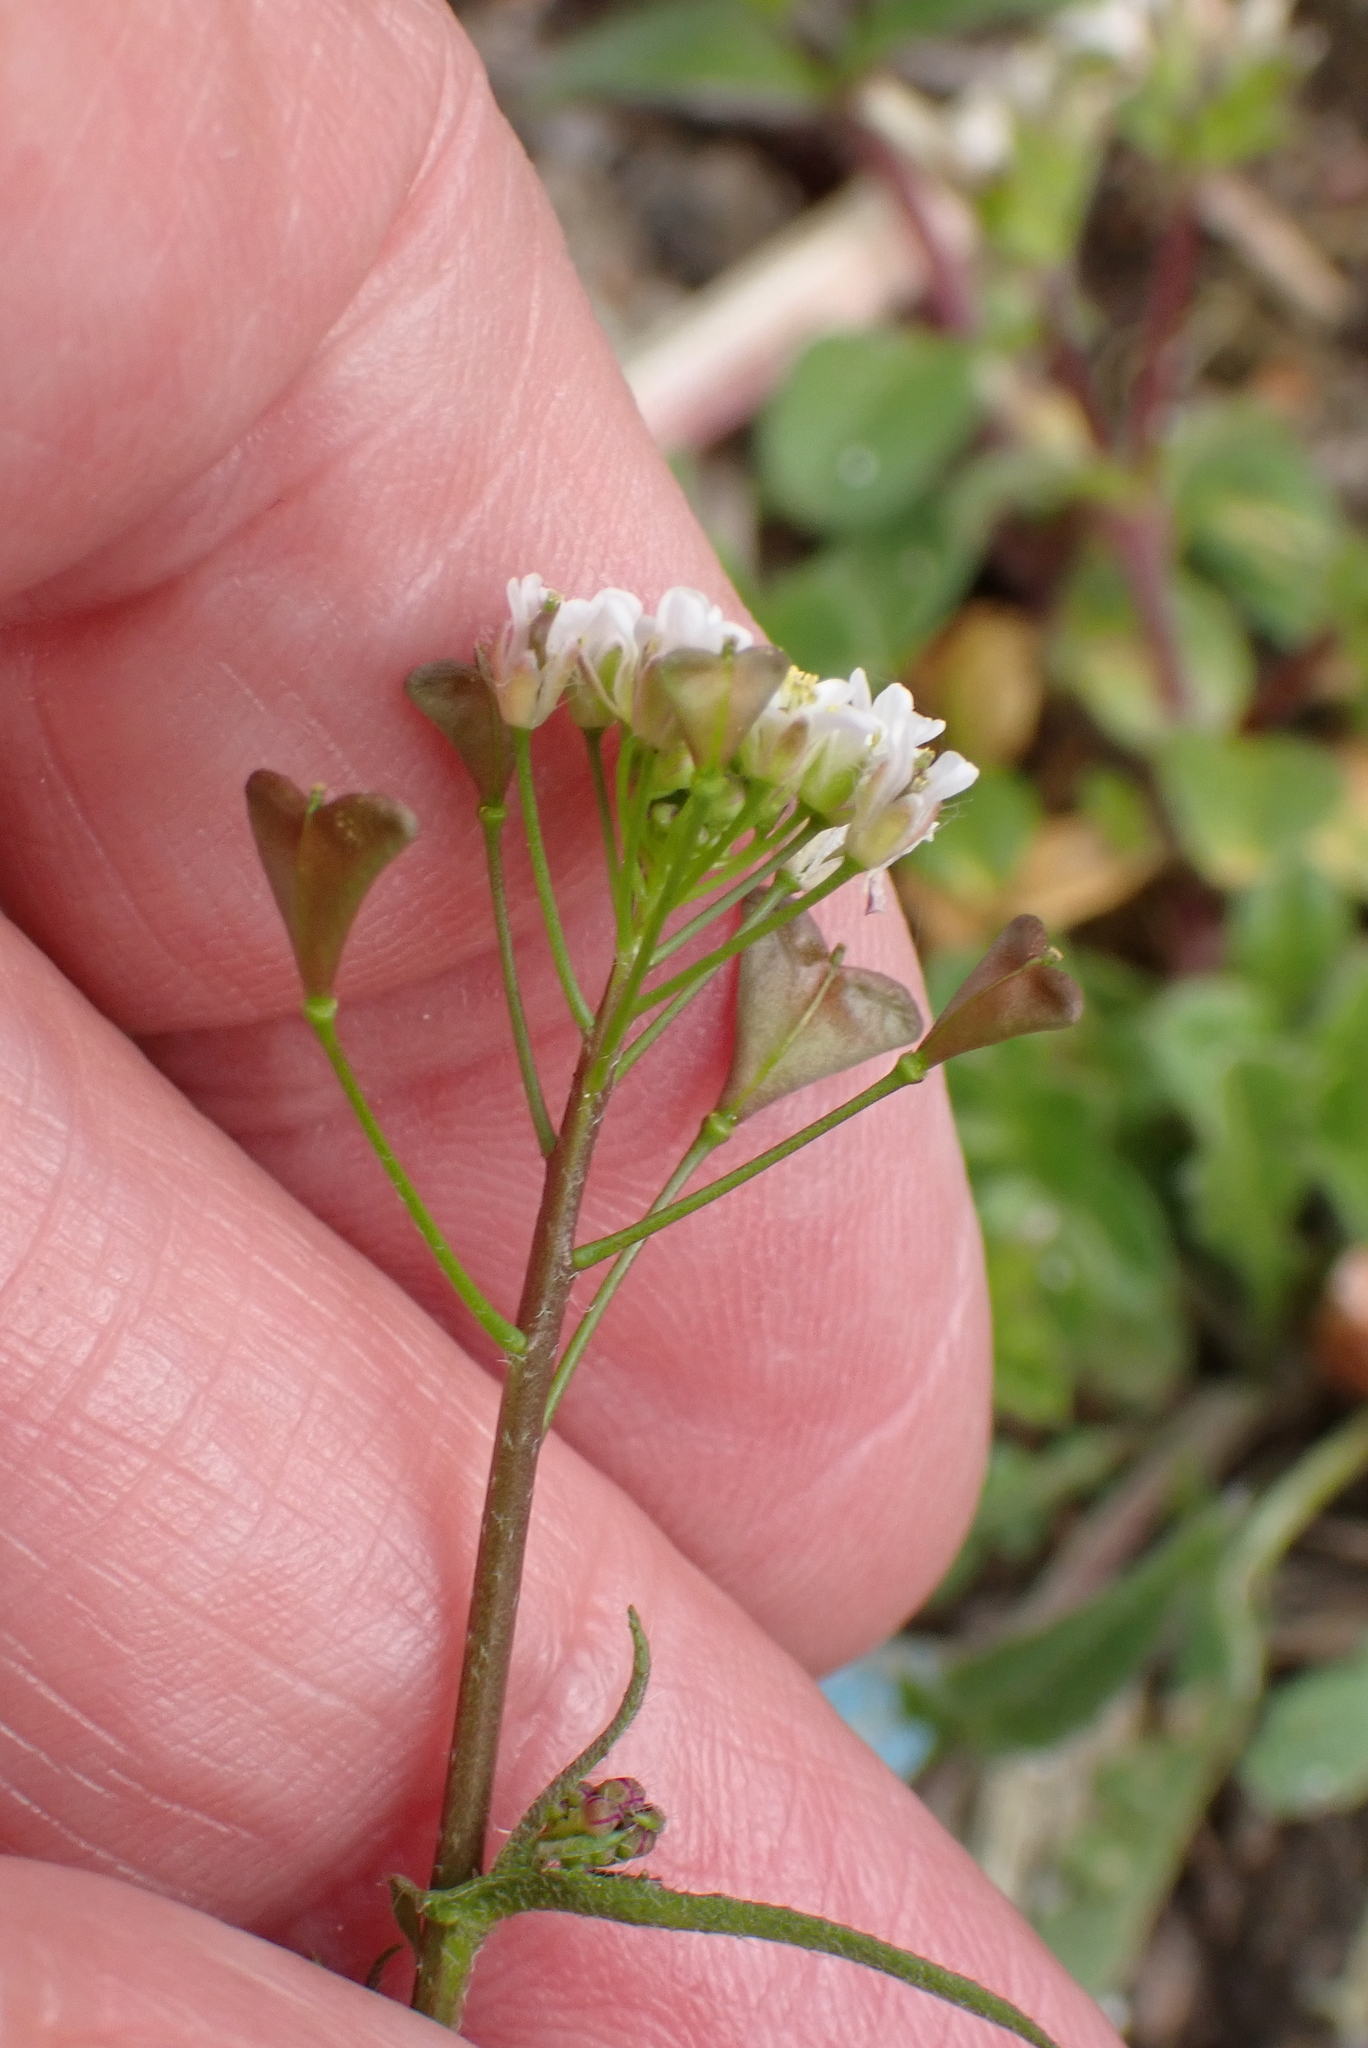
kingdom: Plantae
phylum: Tracheophyta
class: Magnoliopsida
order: Brassicales
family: Brassicaceae
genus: Capsella
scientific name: Capsella bursa-pastoris
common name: Shepherd's purse
